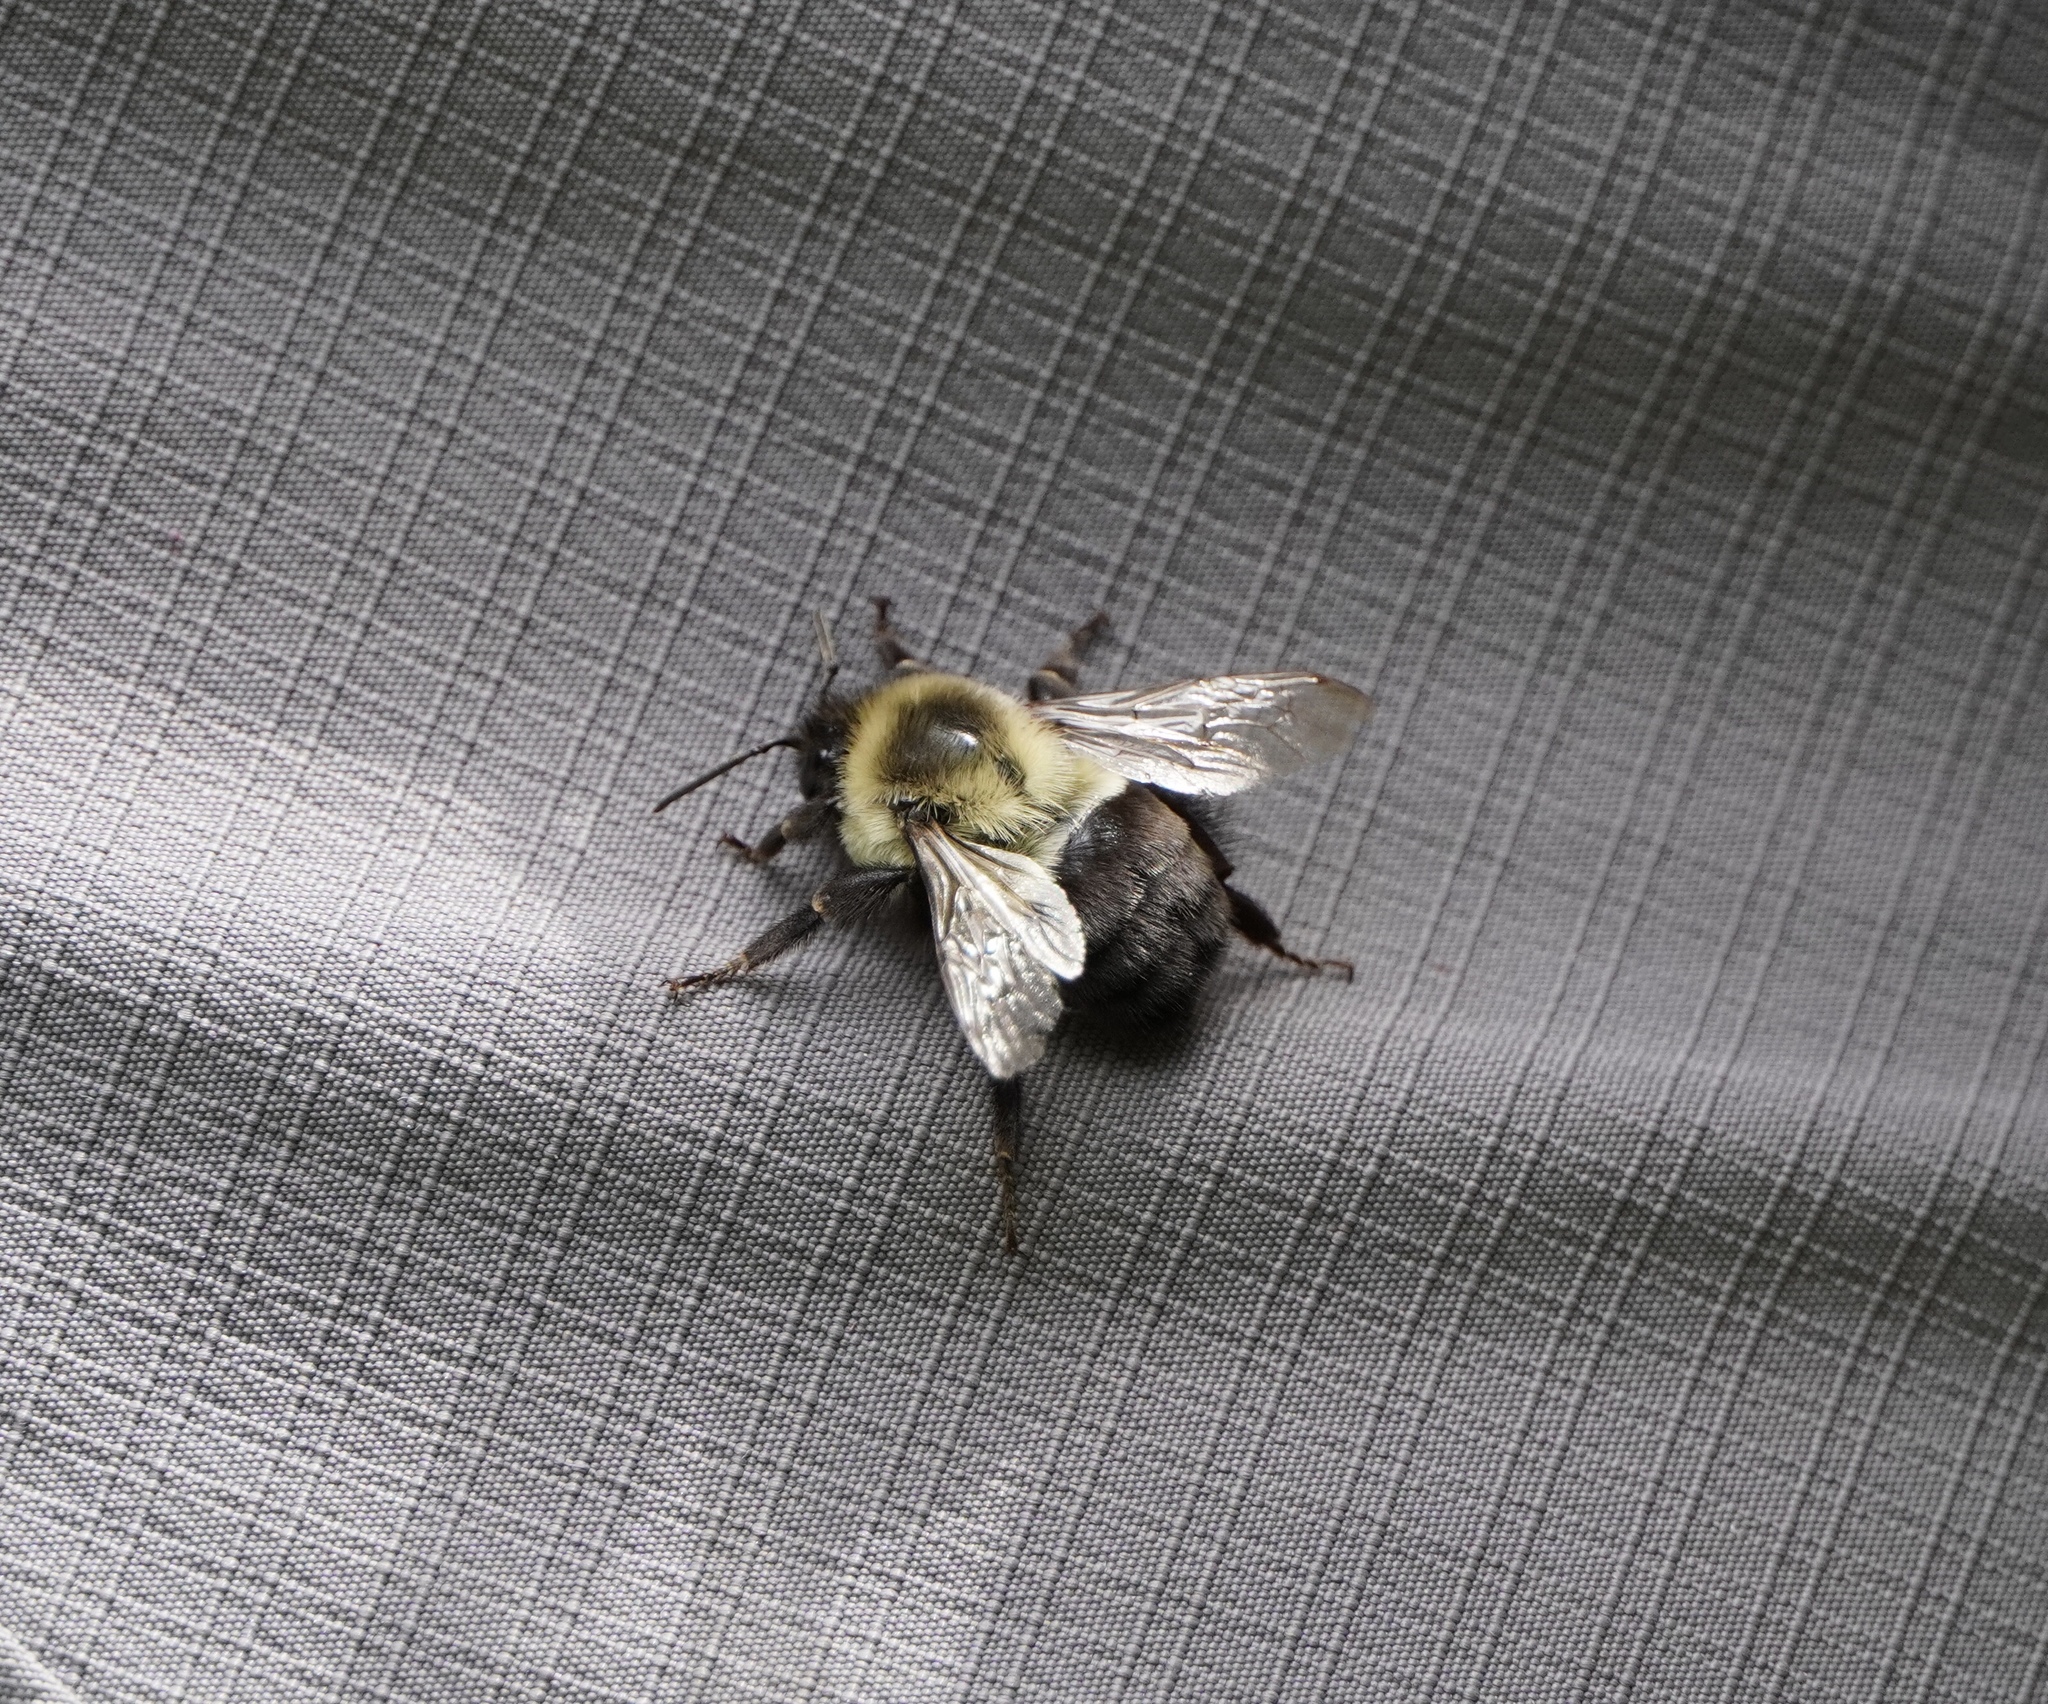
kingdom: Animalia
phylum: Arthropoda
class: Insecta
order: Hymenoptera
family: Apidae
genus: Bombus
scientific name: Bombus impatiens
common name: Common eastern bumble bee
